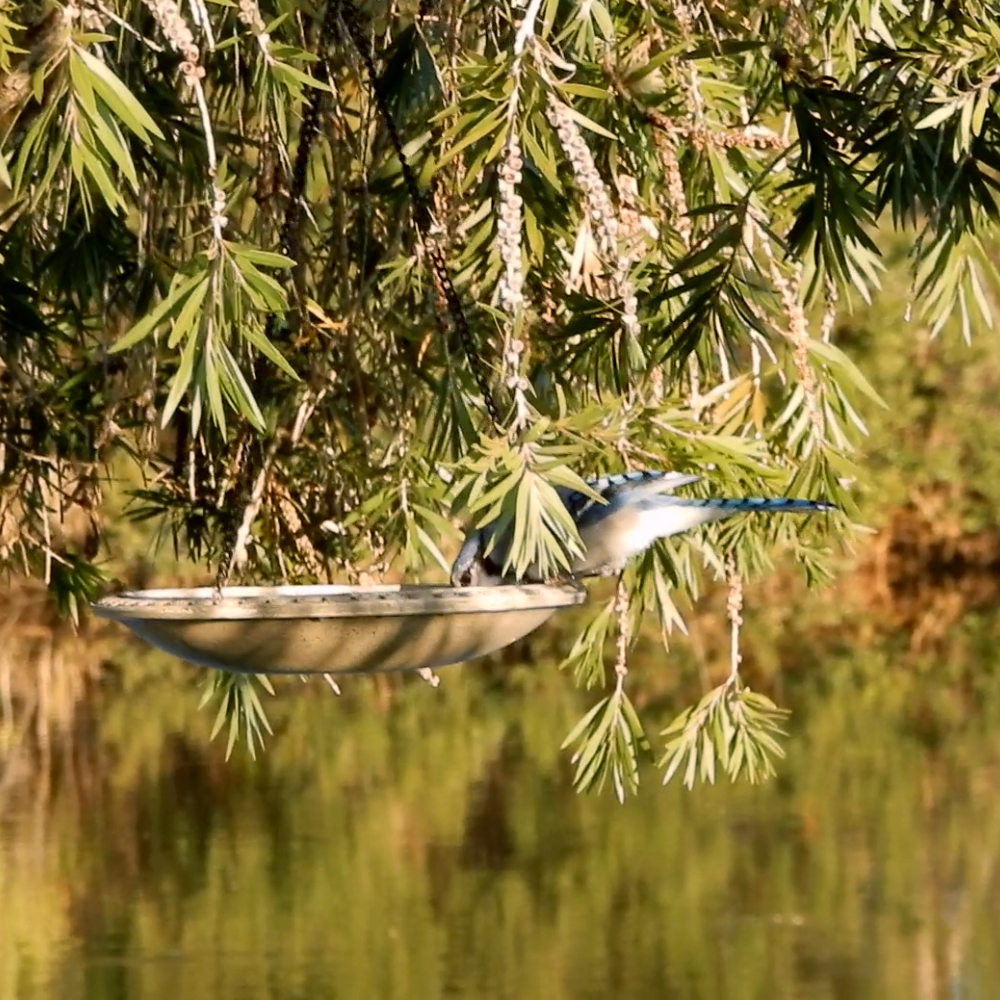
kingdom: Animalia
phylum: Chordata
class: Aves
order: Passeriformes
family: Corvidae
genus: Cyanocitta
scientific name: Cyanocitta cristata
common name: Blue jay
